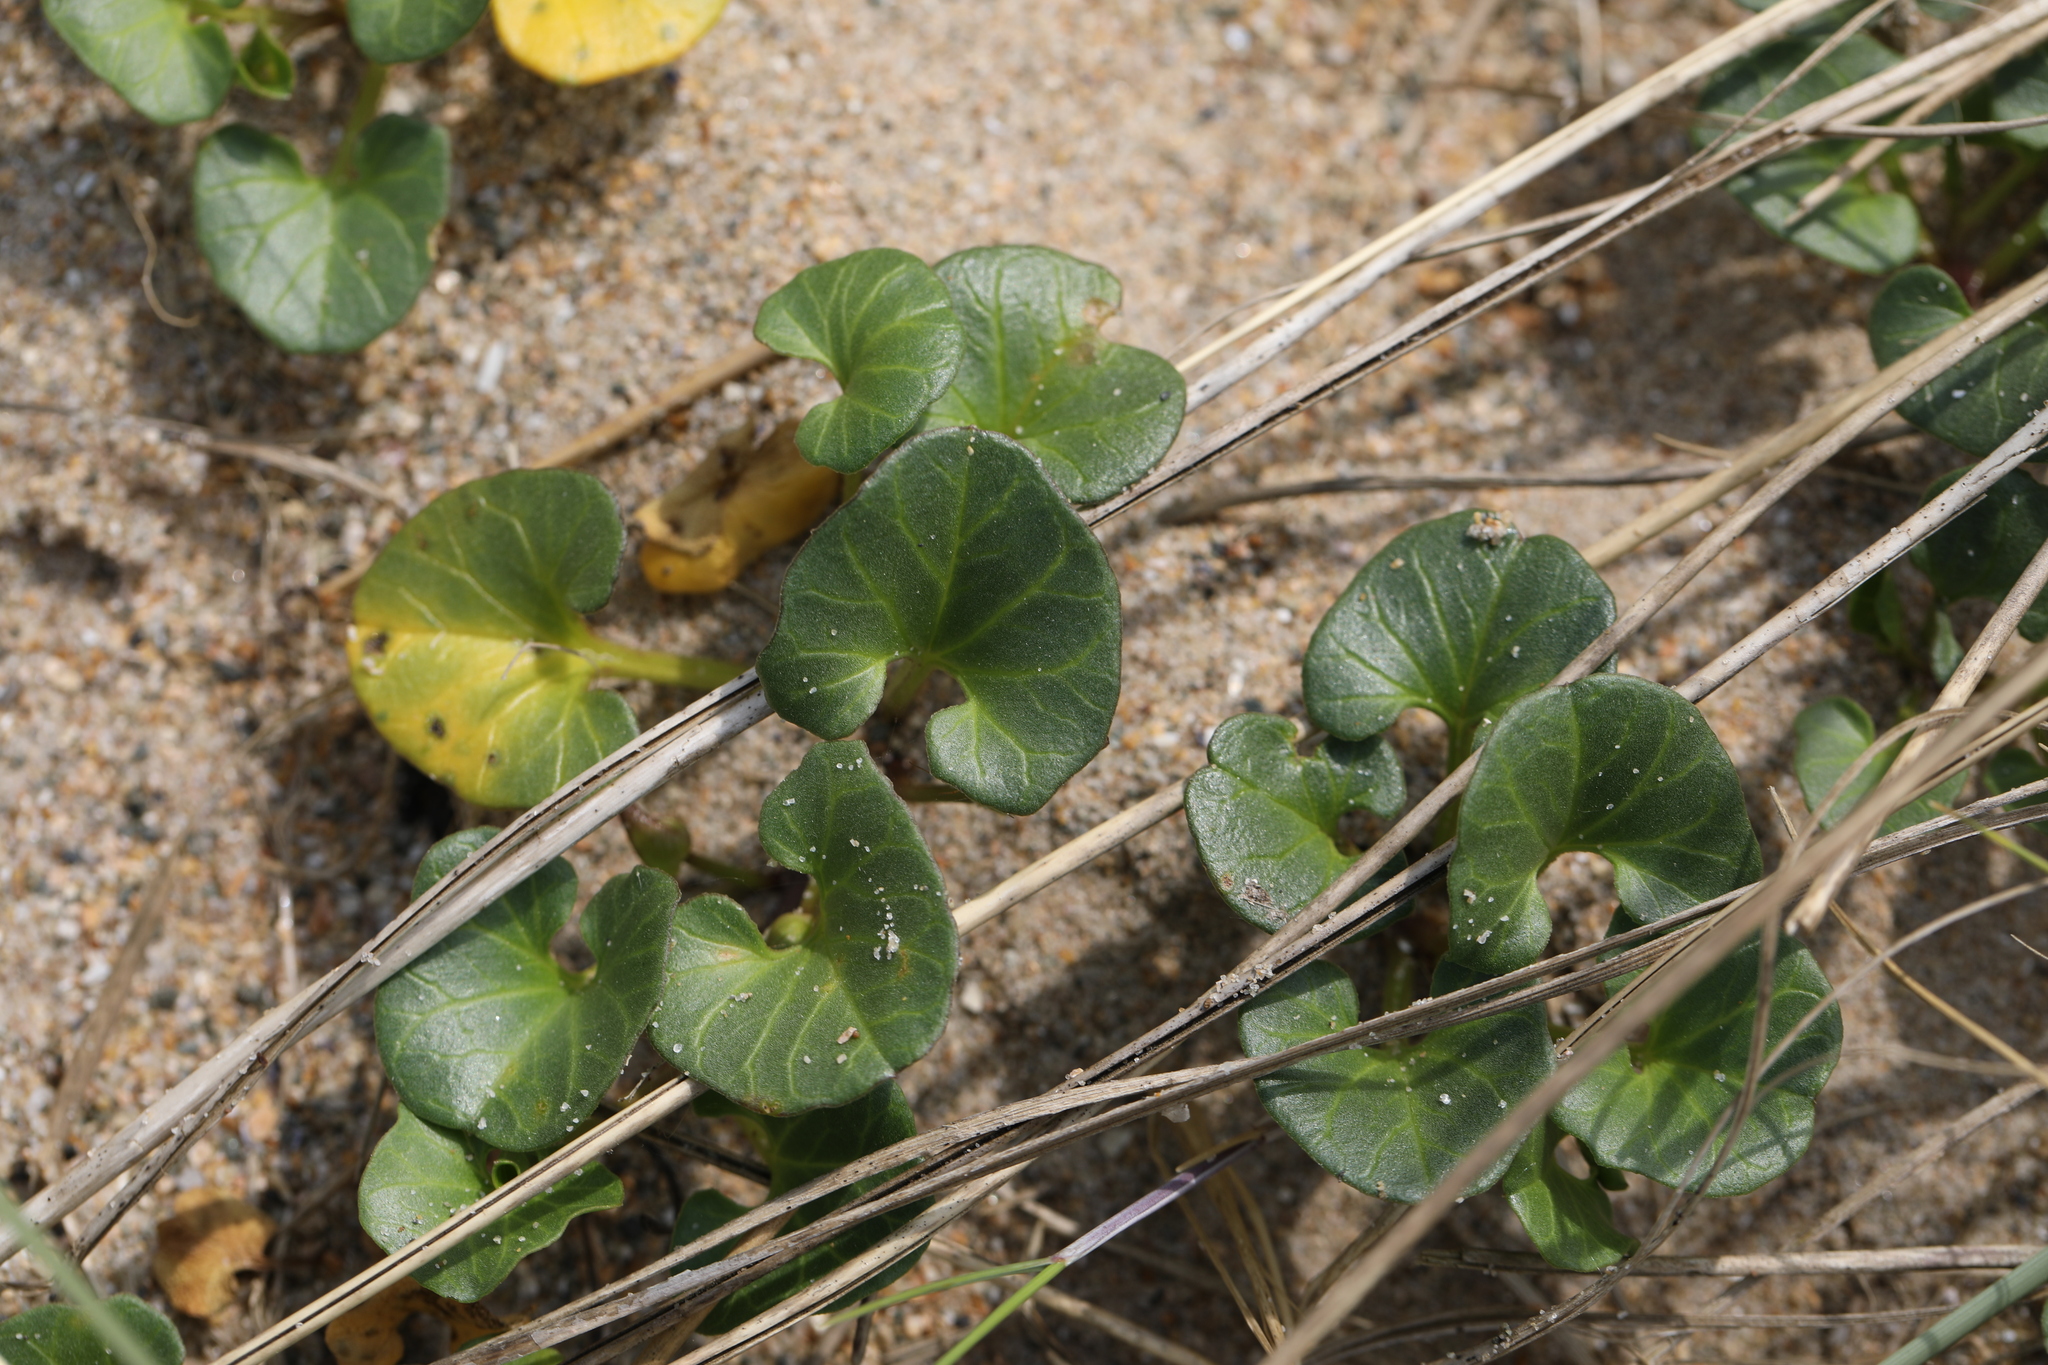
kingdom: Plantae
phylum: Tracheophyta
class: Magnoliopsida
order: Solanales
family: Convolvulaceae
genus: Calystegia
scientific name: Calystegia soldanella
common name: Sea bindweed
